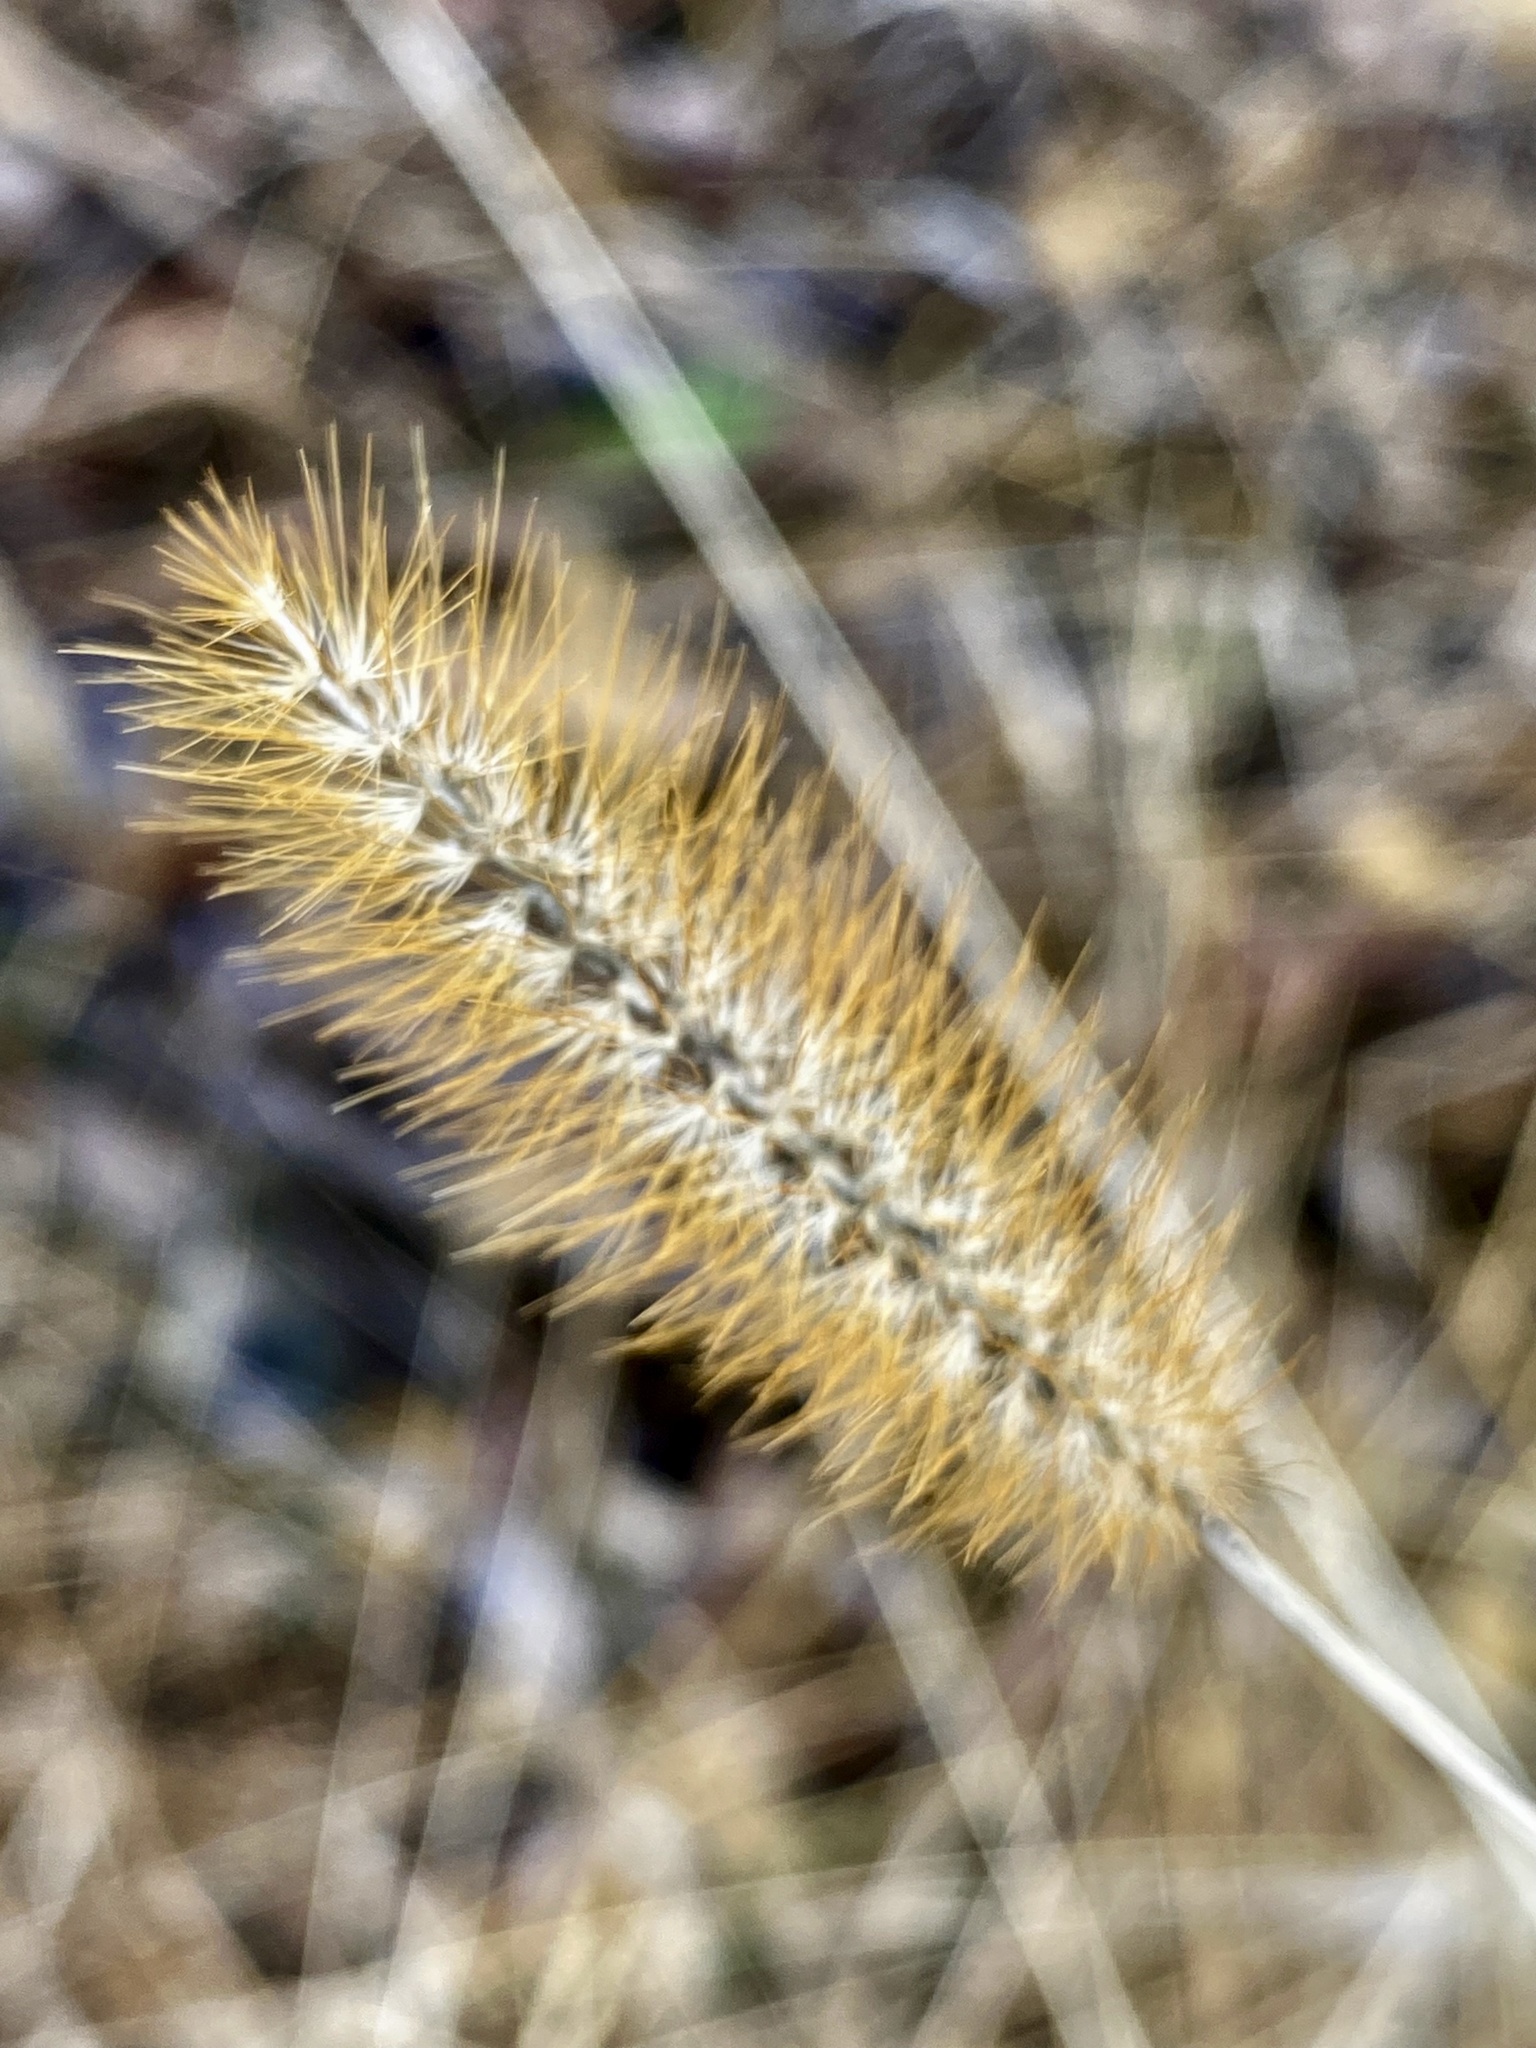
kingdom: Plantae
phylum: Tracheophyta
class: Liliopsida
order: Poales
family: Poaceae
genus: Setaria
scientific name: Setaria pumila
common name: Yellow bristle-grass
